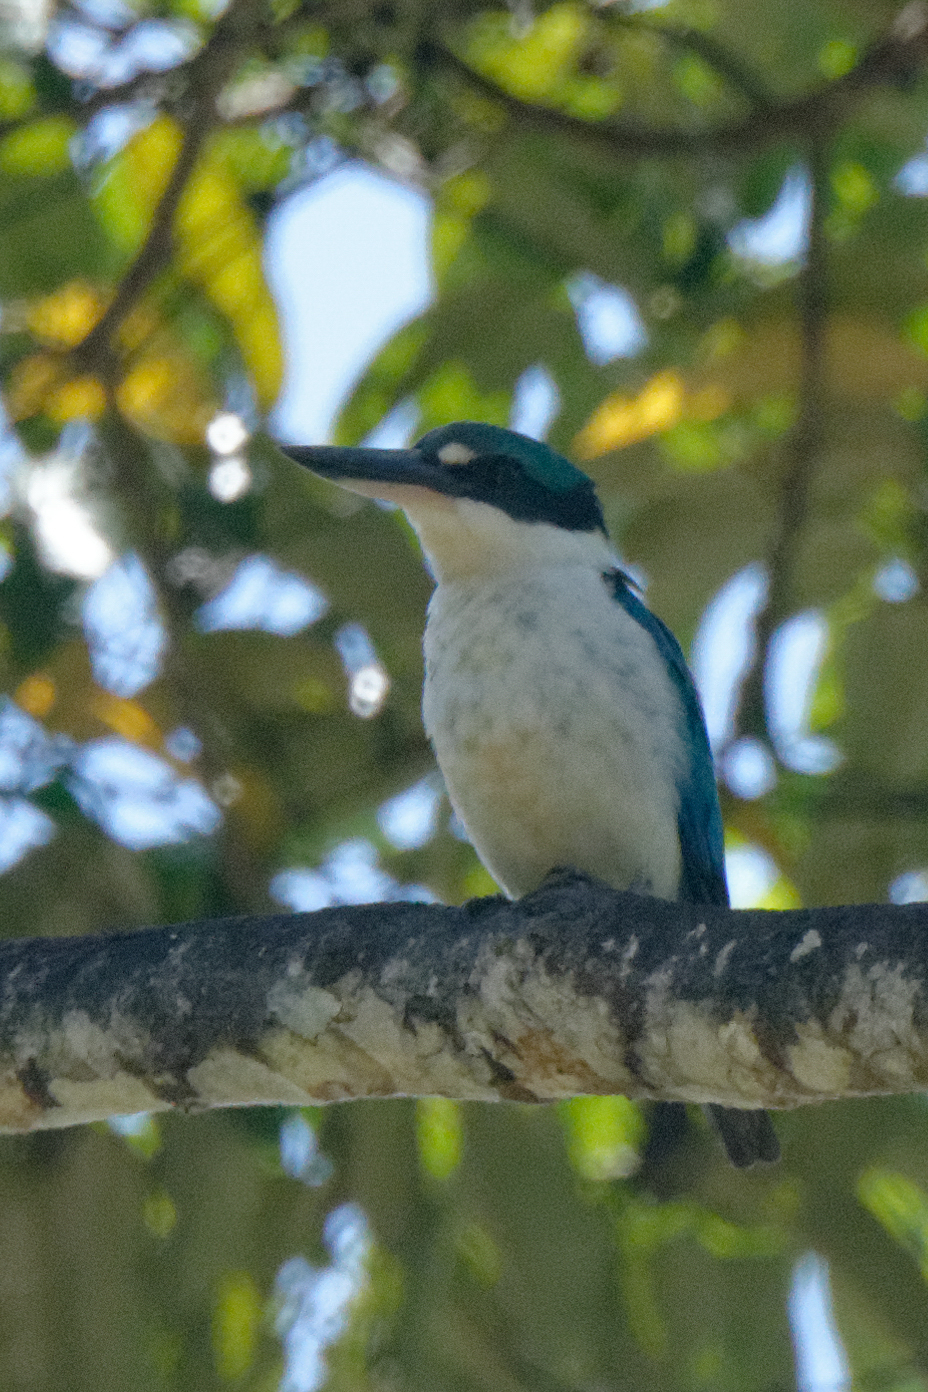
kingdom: Animalia
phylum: Chordata
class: Aves
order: Coraciiformes
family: Alcedinidae
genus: Todiramphus
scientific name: Todiramphus chloris
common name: Collared kingfisher
